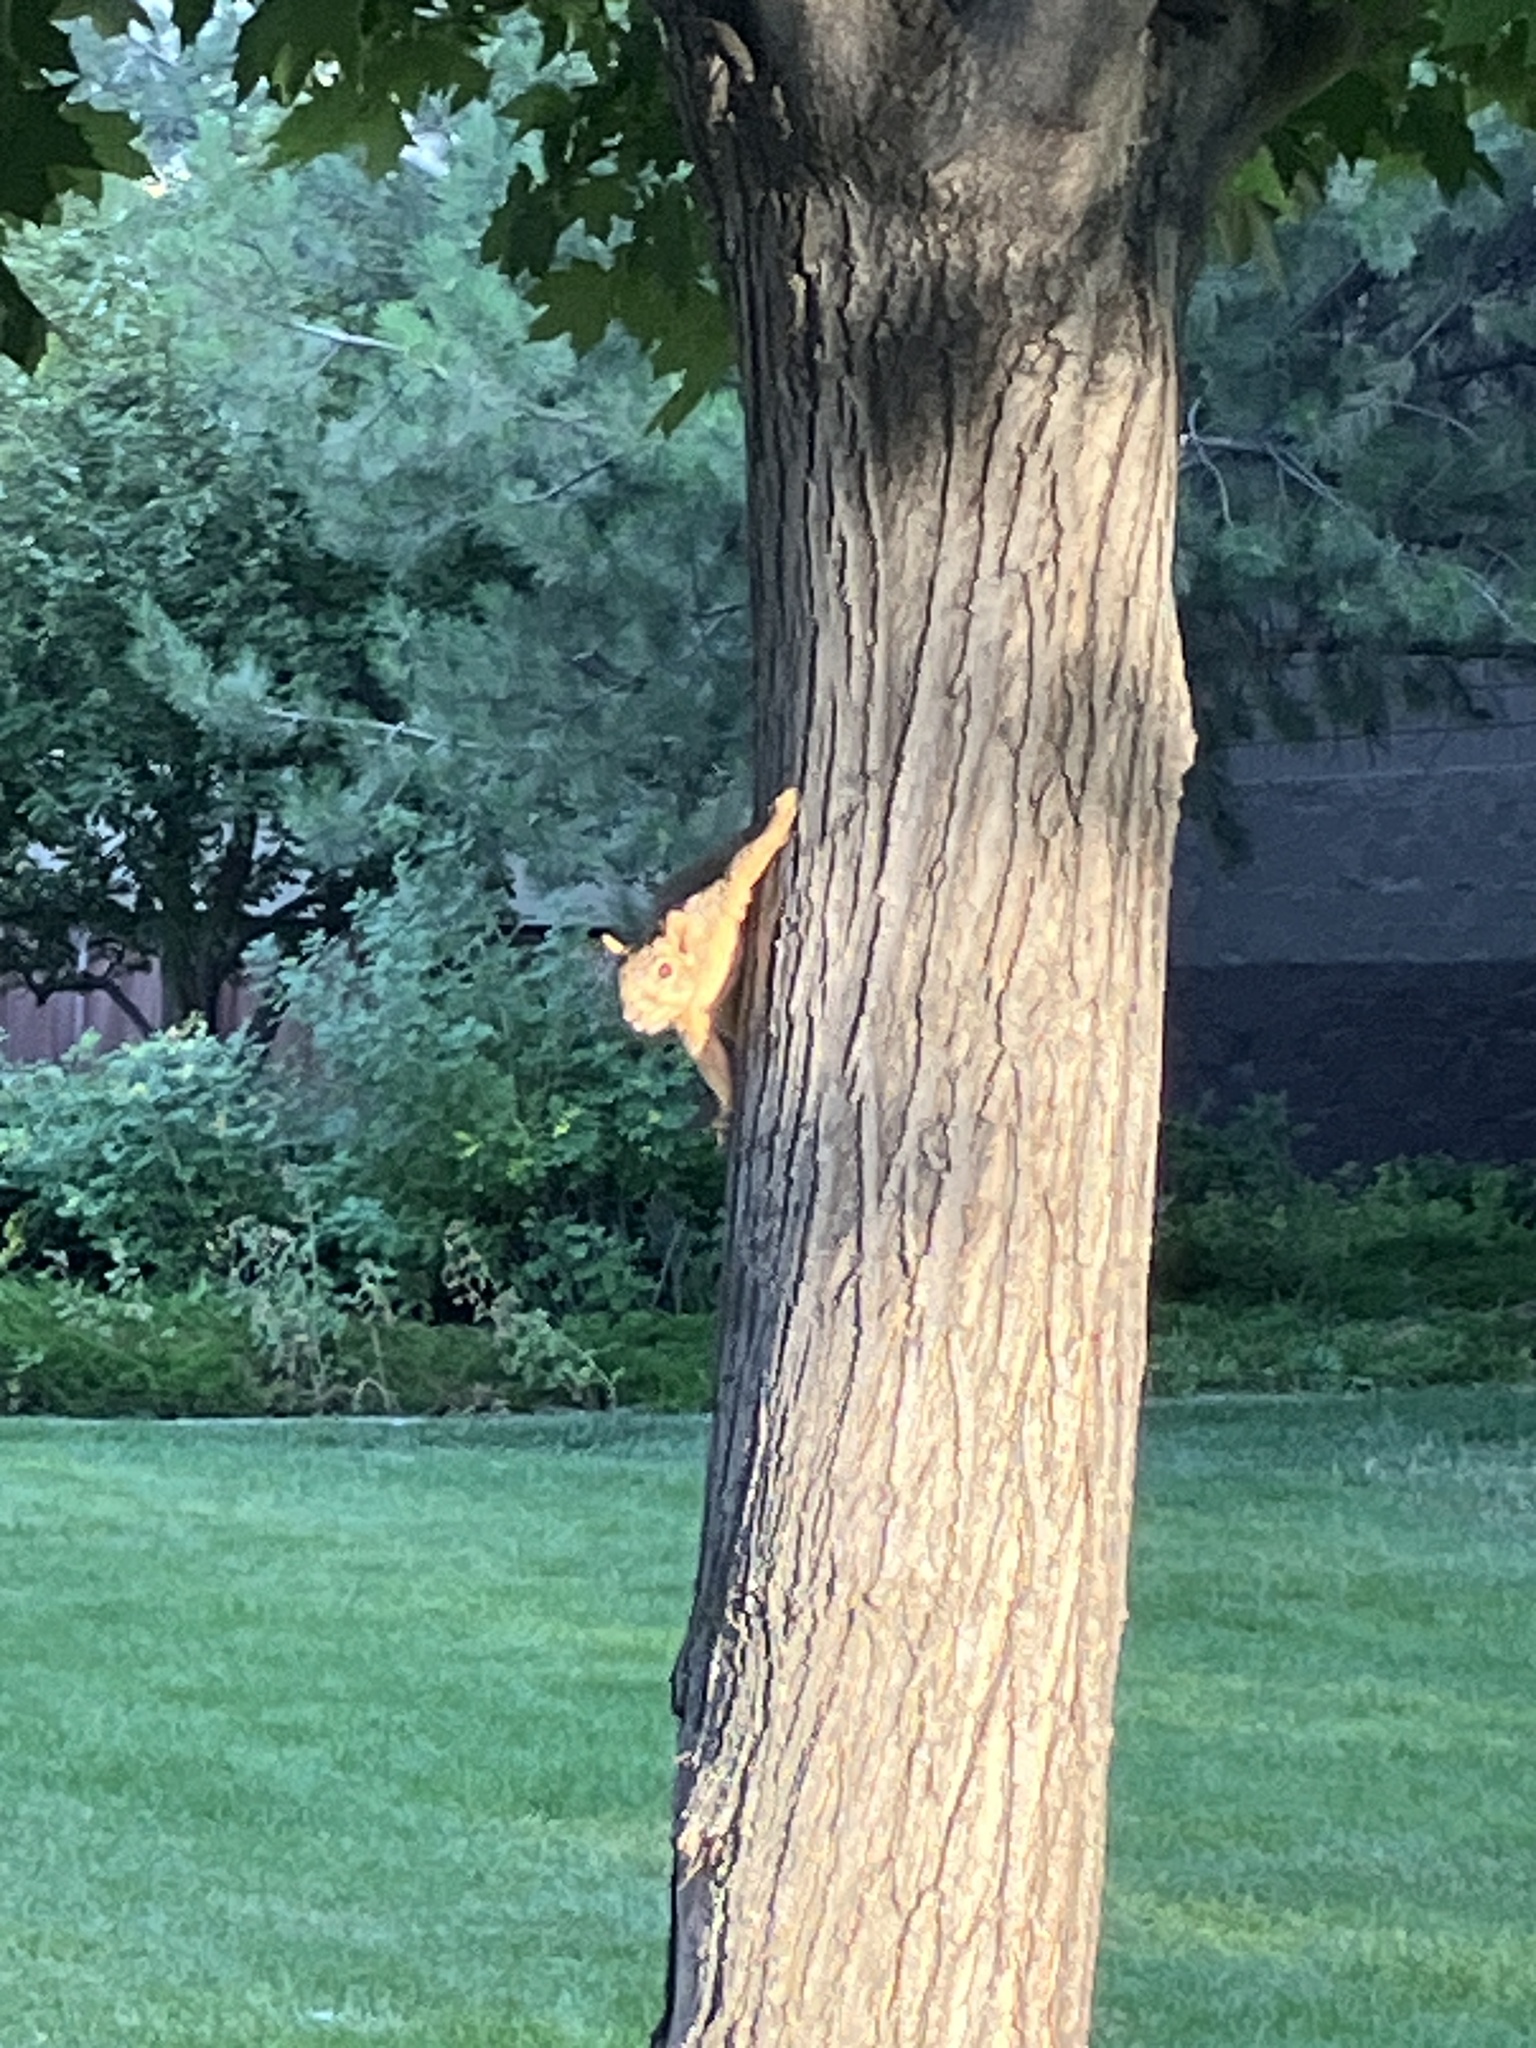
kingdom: Animalia
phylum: Chordata
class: Mammalia
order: Rodentia
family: Sciuridae
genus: Sciurus
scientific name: Sciurus niger
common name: Fox squirrel
